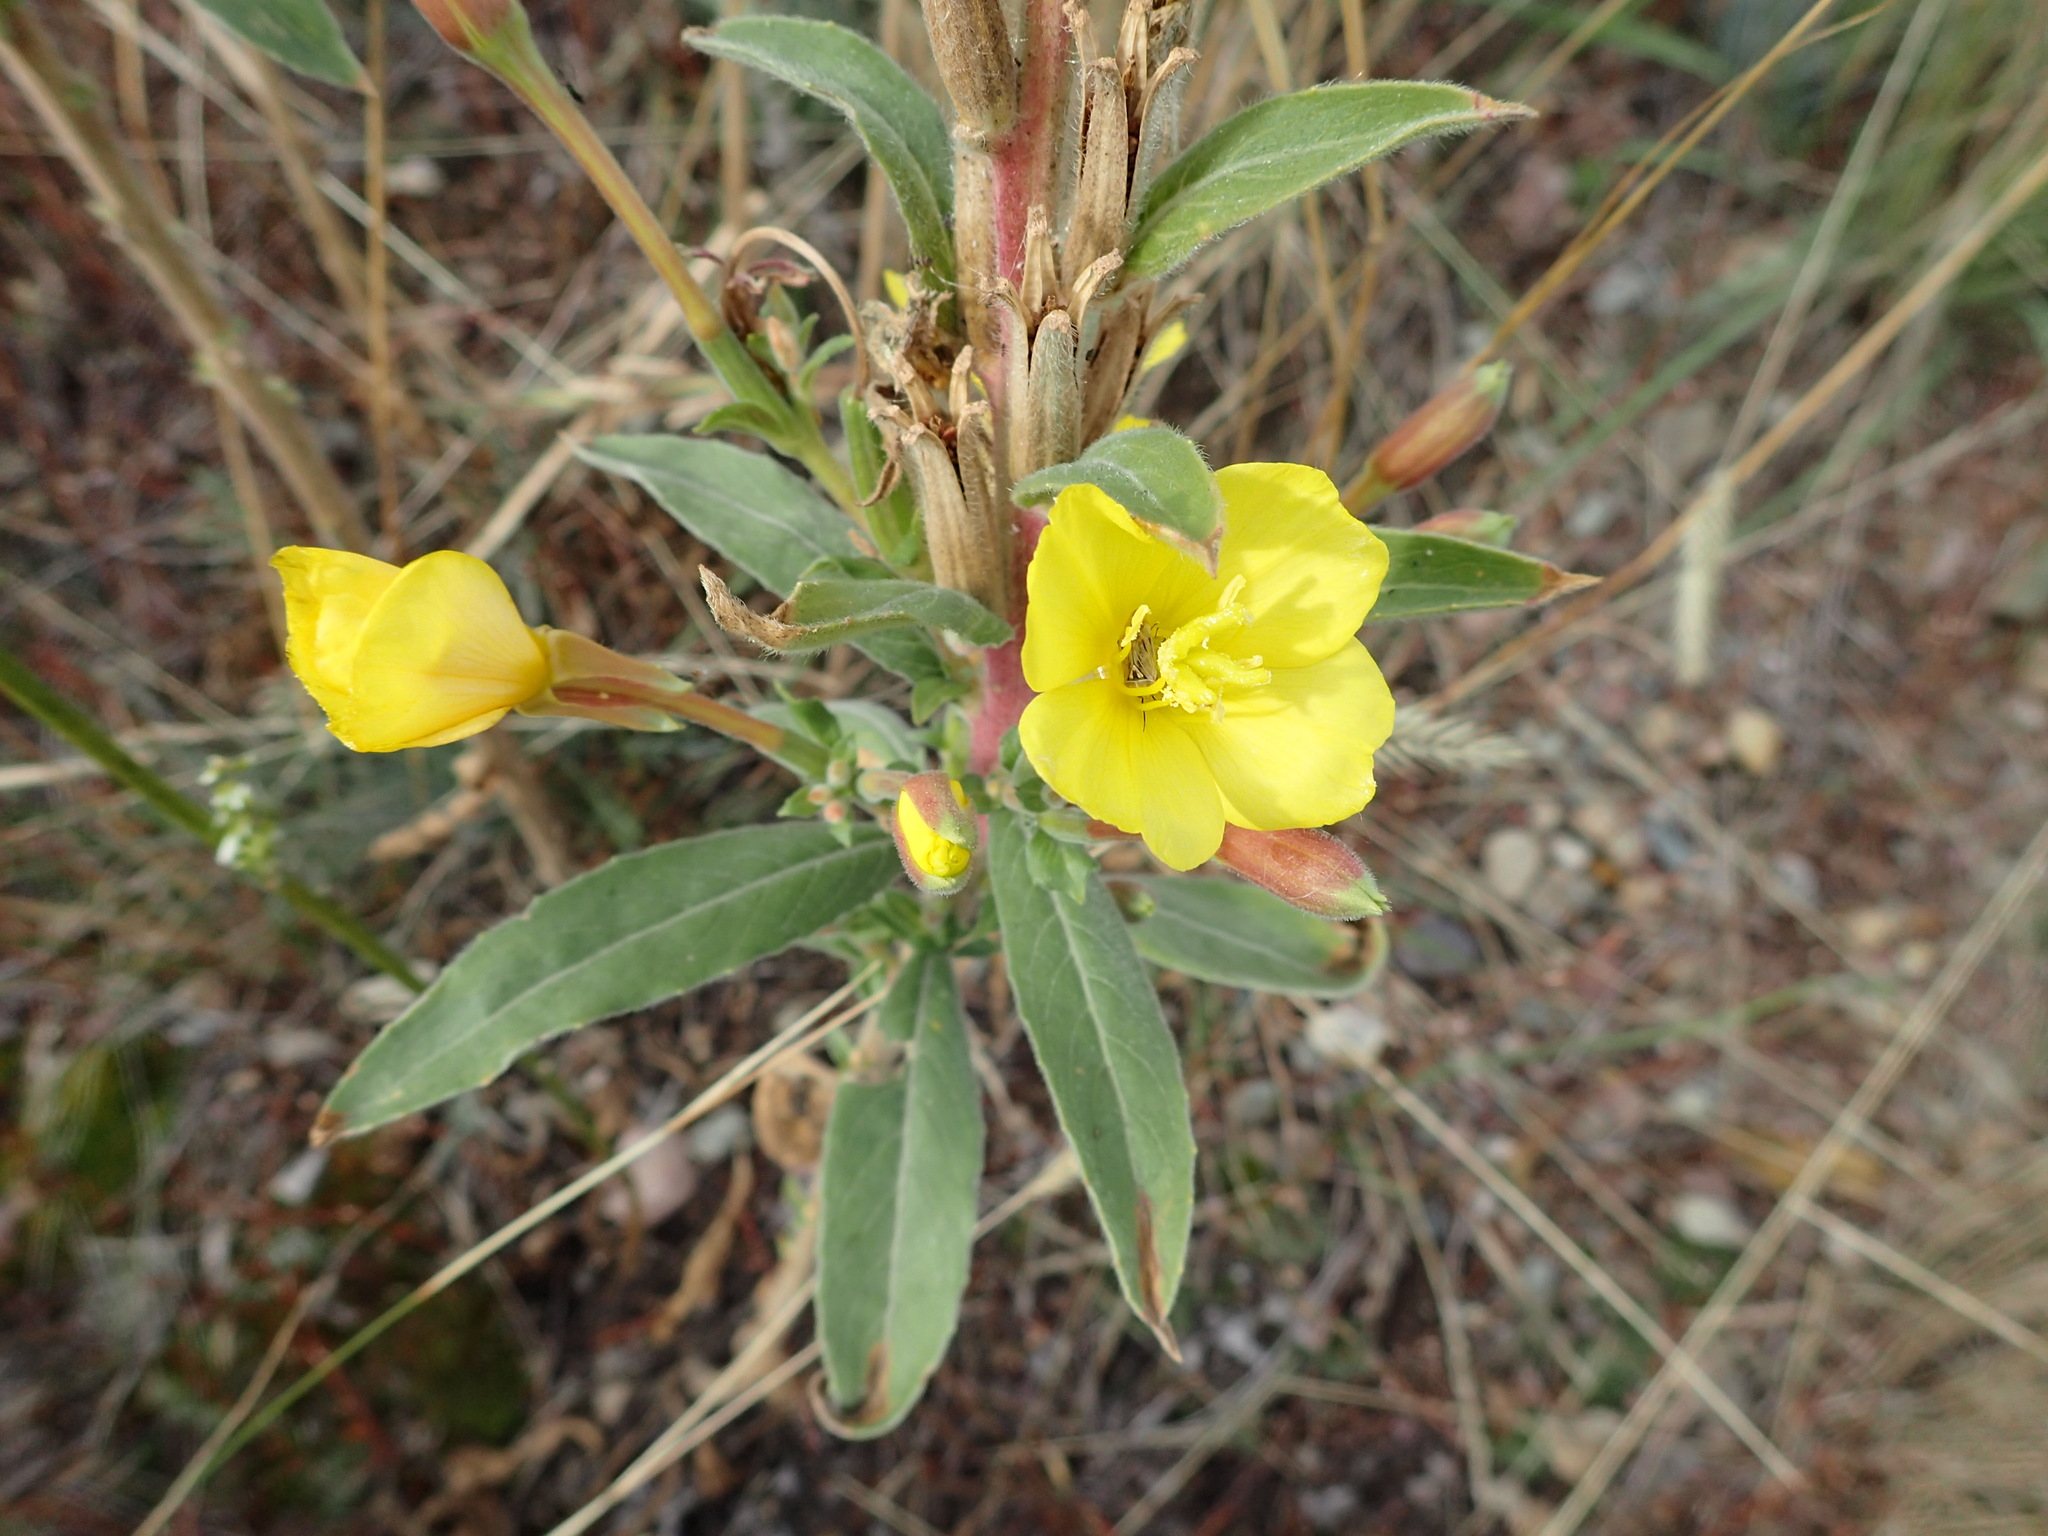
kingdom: Plantae
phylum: Tracheophyta
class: Magnoliopsida
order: Myrtales
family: Onagraceae
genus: Oenothera
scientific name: Oenothera biennis
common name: Common evening-primrose
